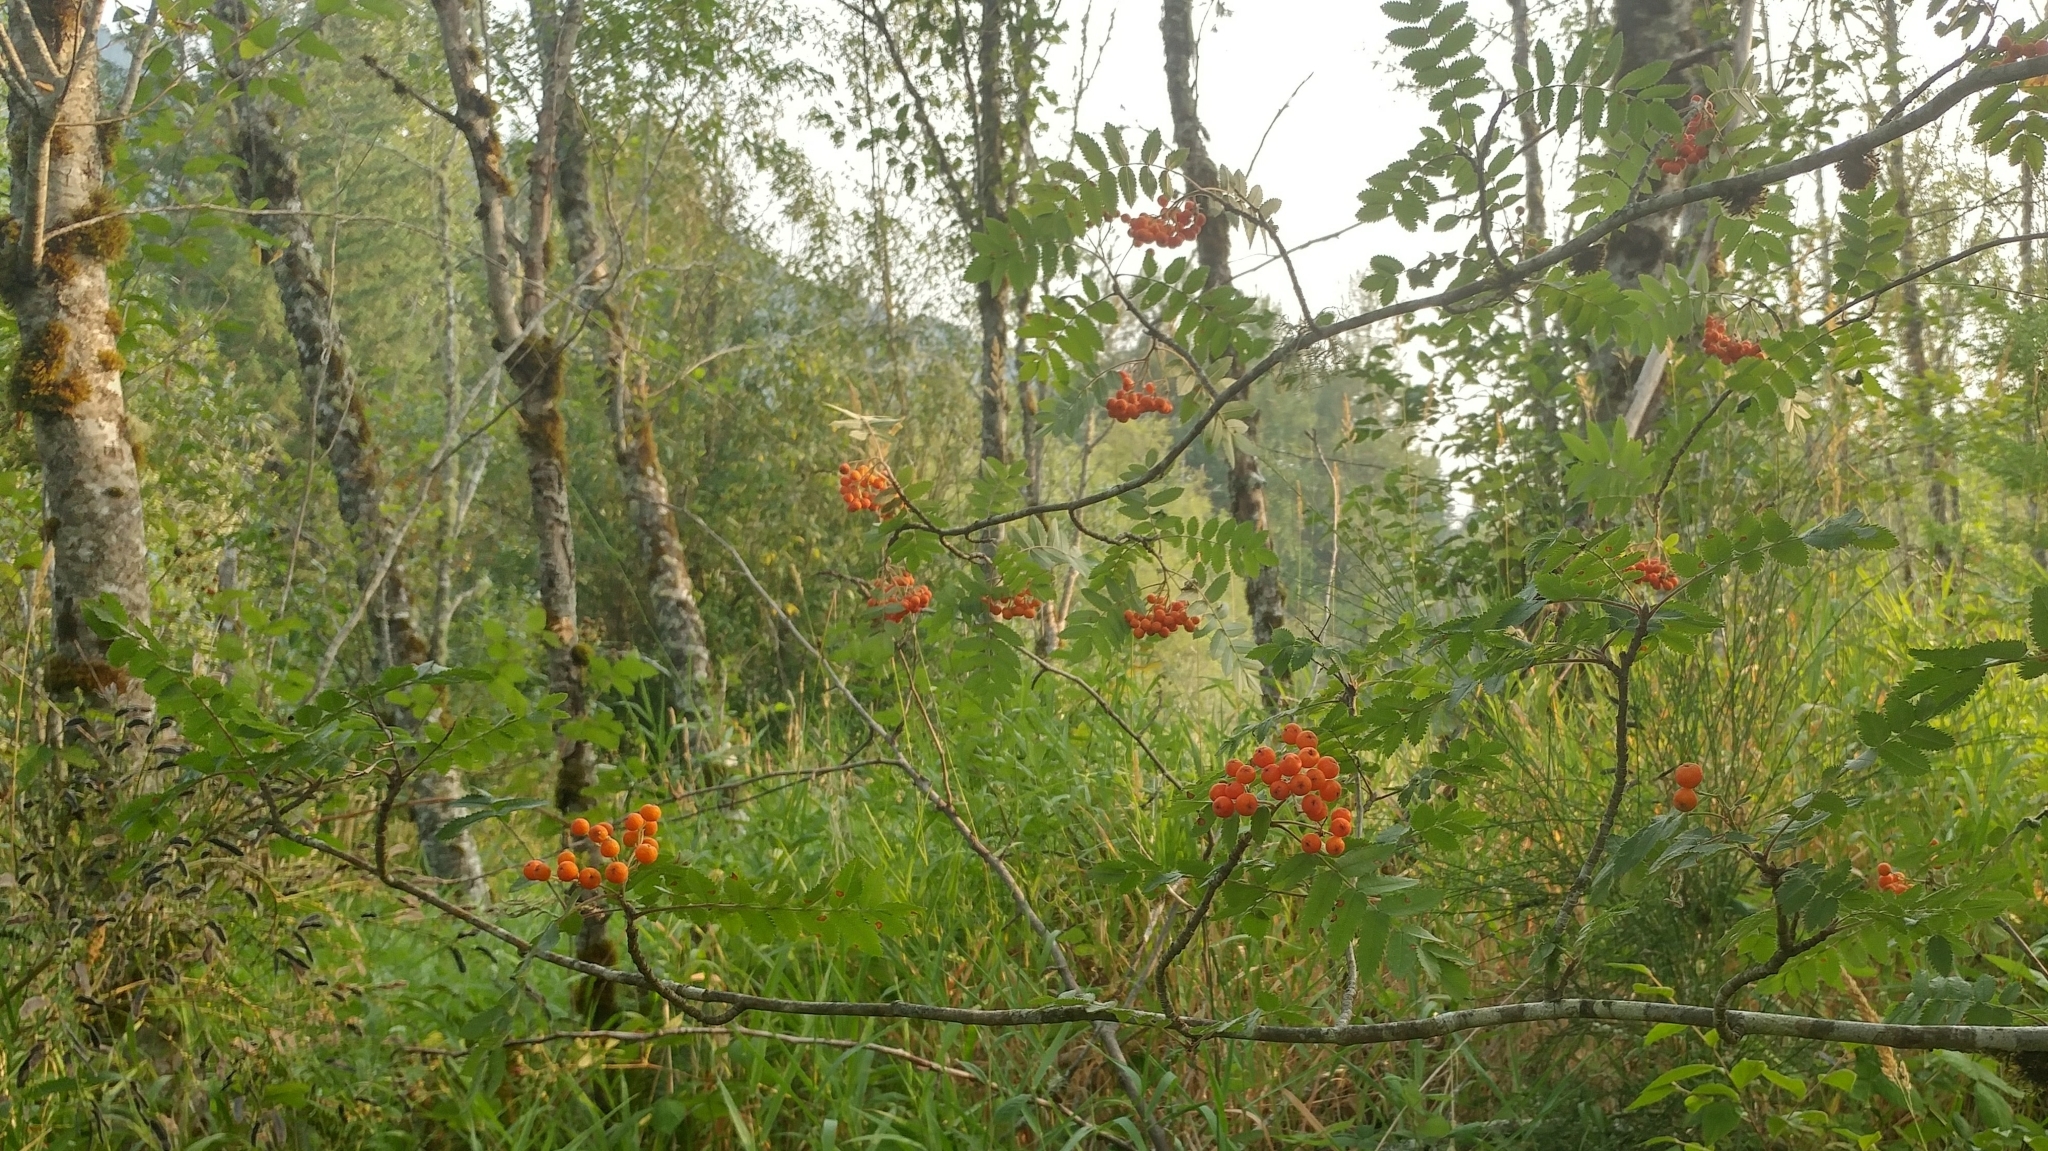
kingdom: Plantae
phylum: Tracheophyta
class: Magnoliopsida
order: Rosales
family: Rosaceae
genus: Sorbus
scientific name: Sorbus aucuparia
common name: Rowan
